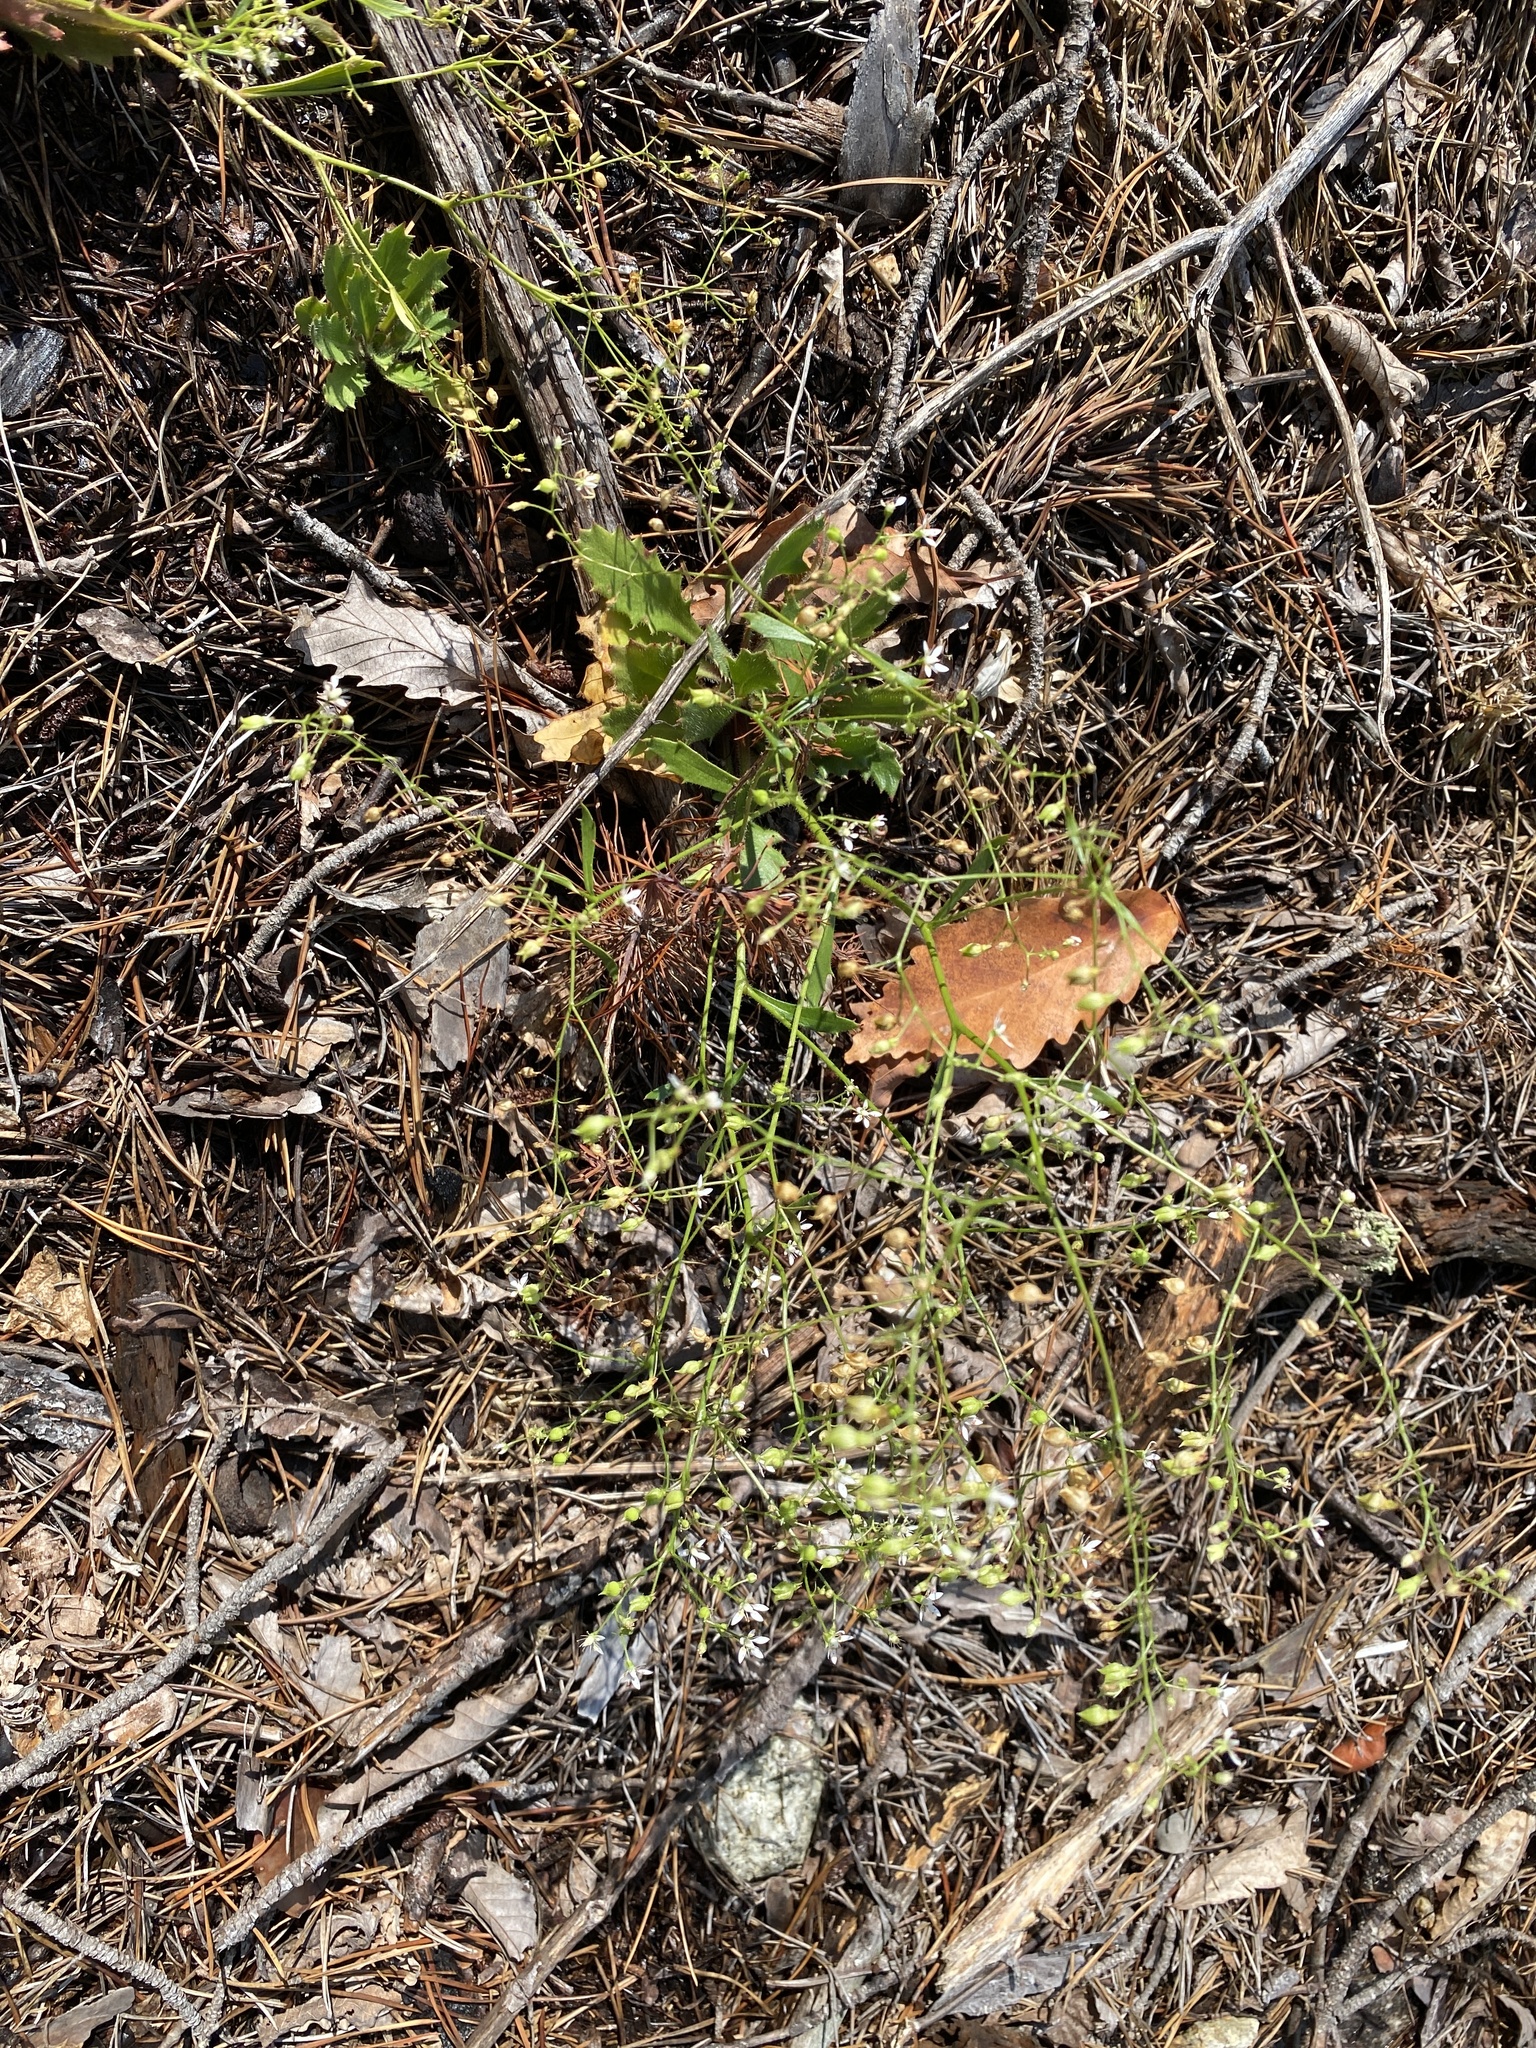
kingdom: Plantae
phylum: Tracheophyta
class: Magnoliopsida
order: Saxifragales
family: Saxifragaceae
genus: Micranthes
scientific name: Micranthes petiolaris
